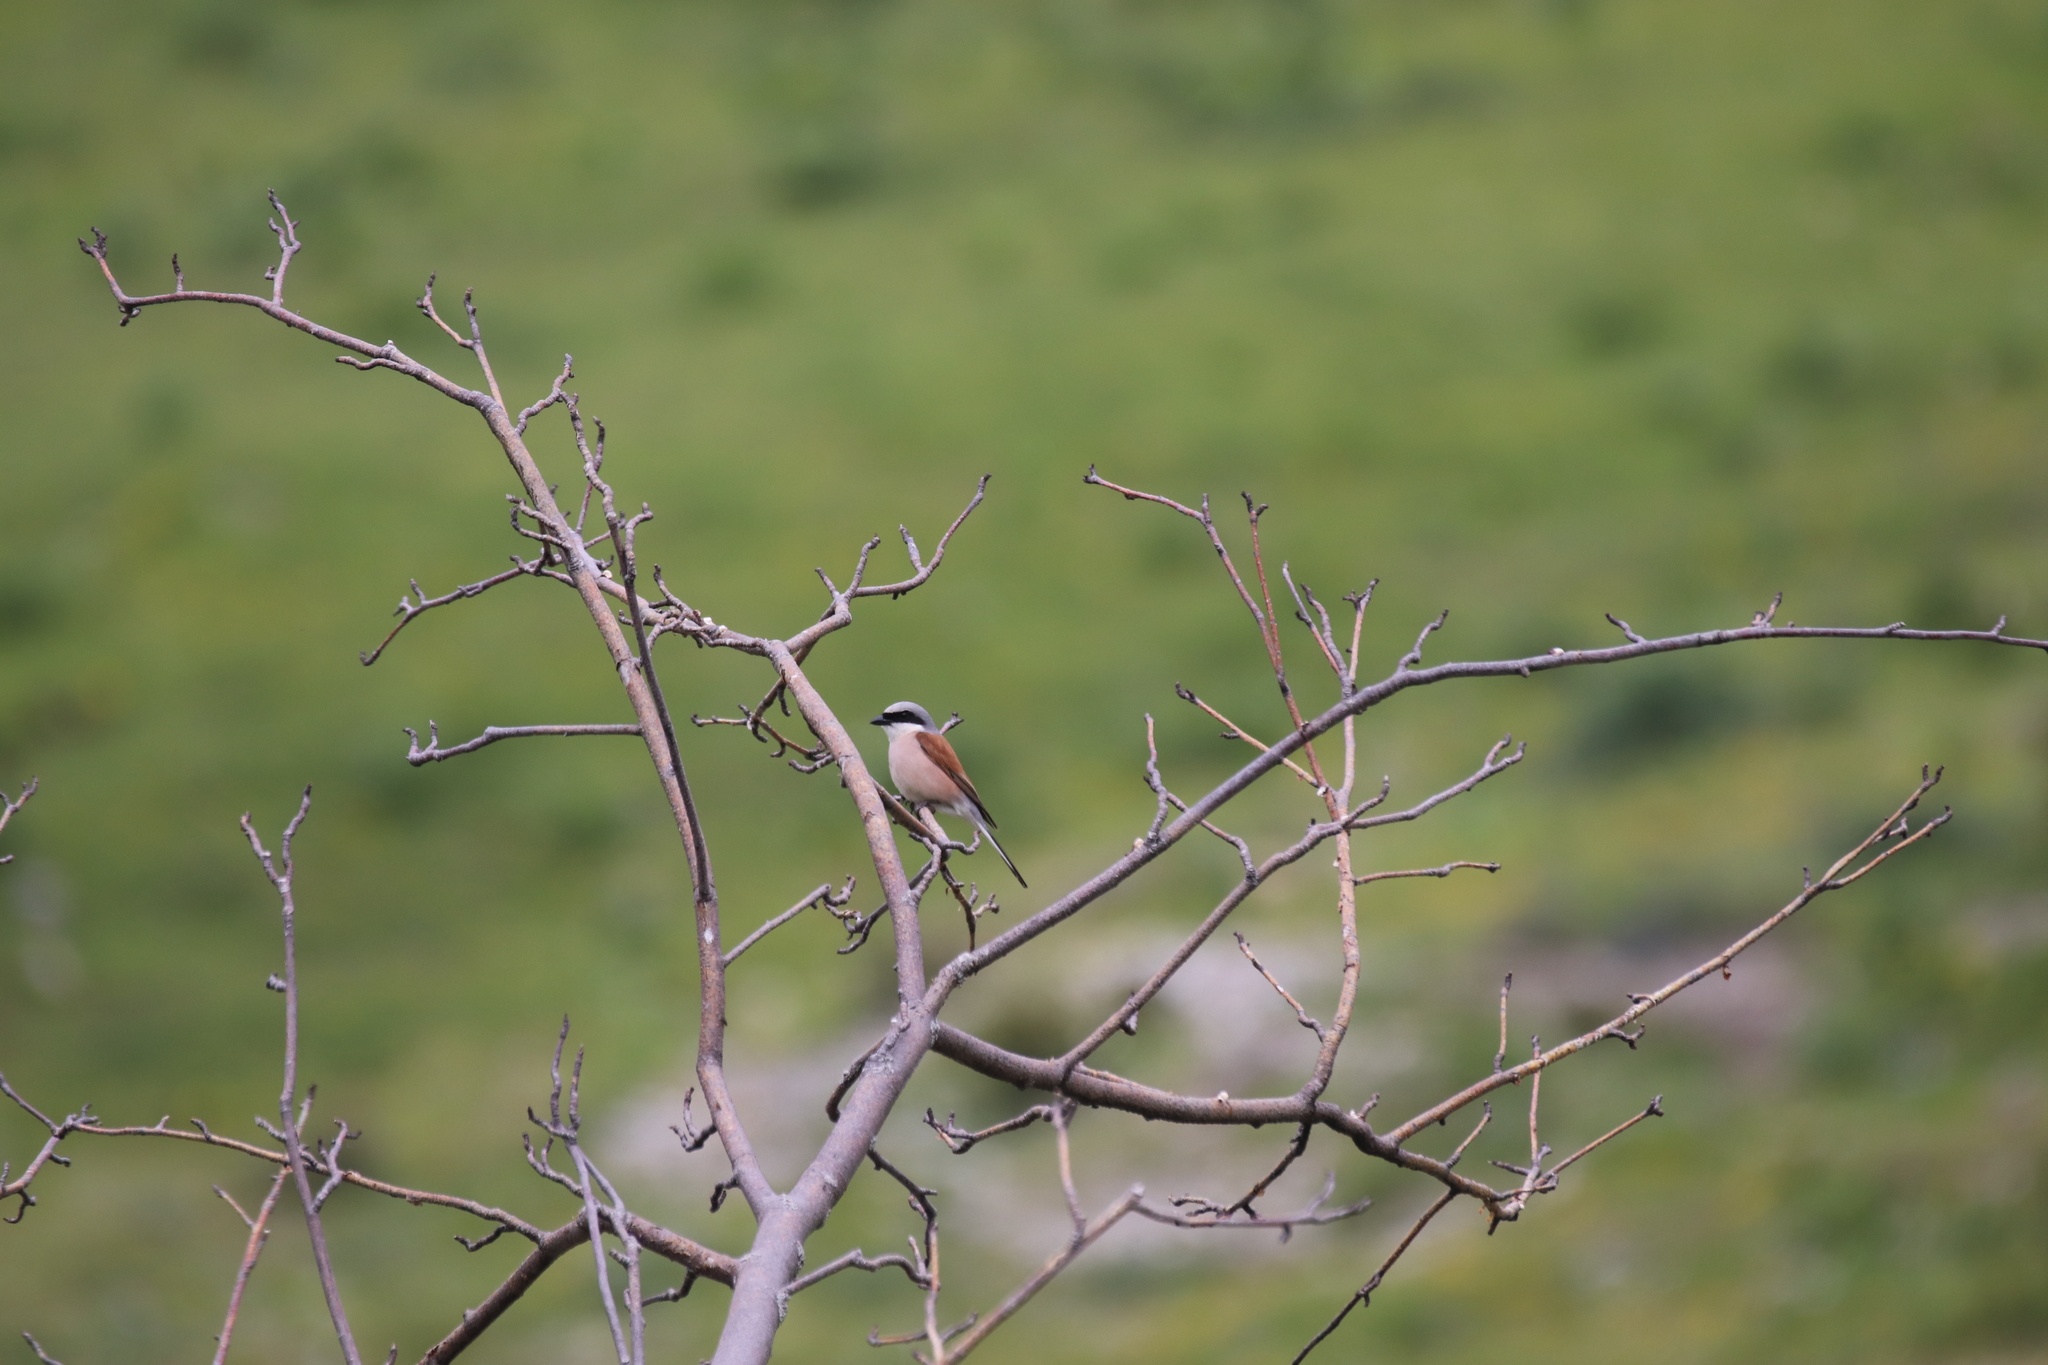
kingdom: Animalia
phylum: Chordata
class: Aves
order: Passeriformes
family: Laniidae
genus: Lanius
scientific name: Lanius collurio
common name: Red-backed shrike
